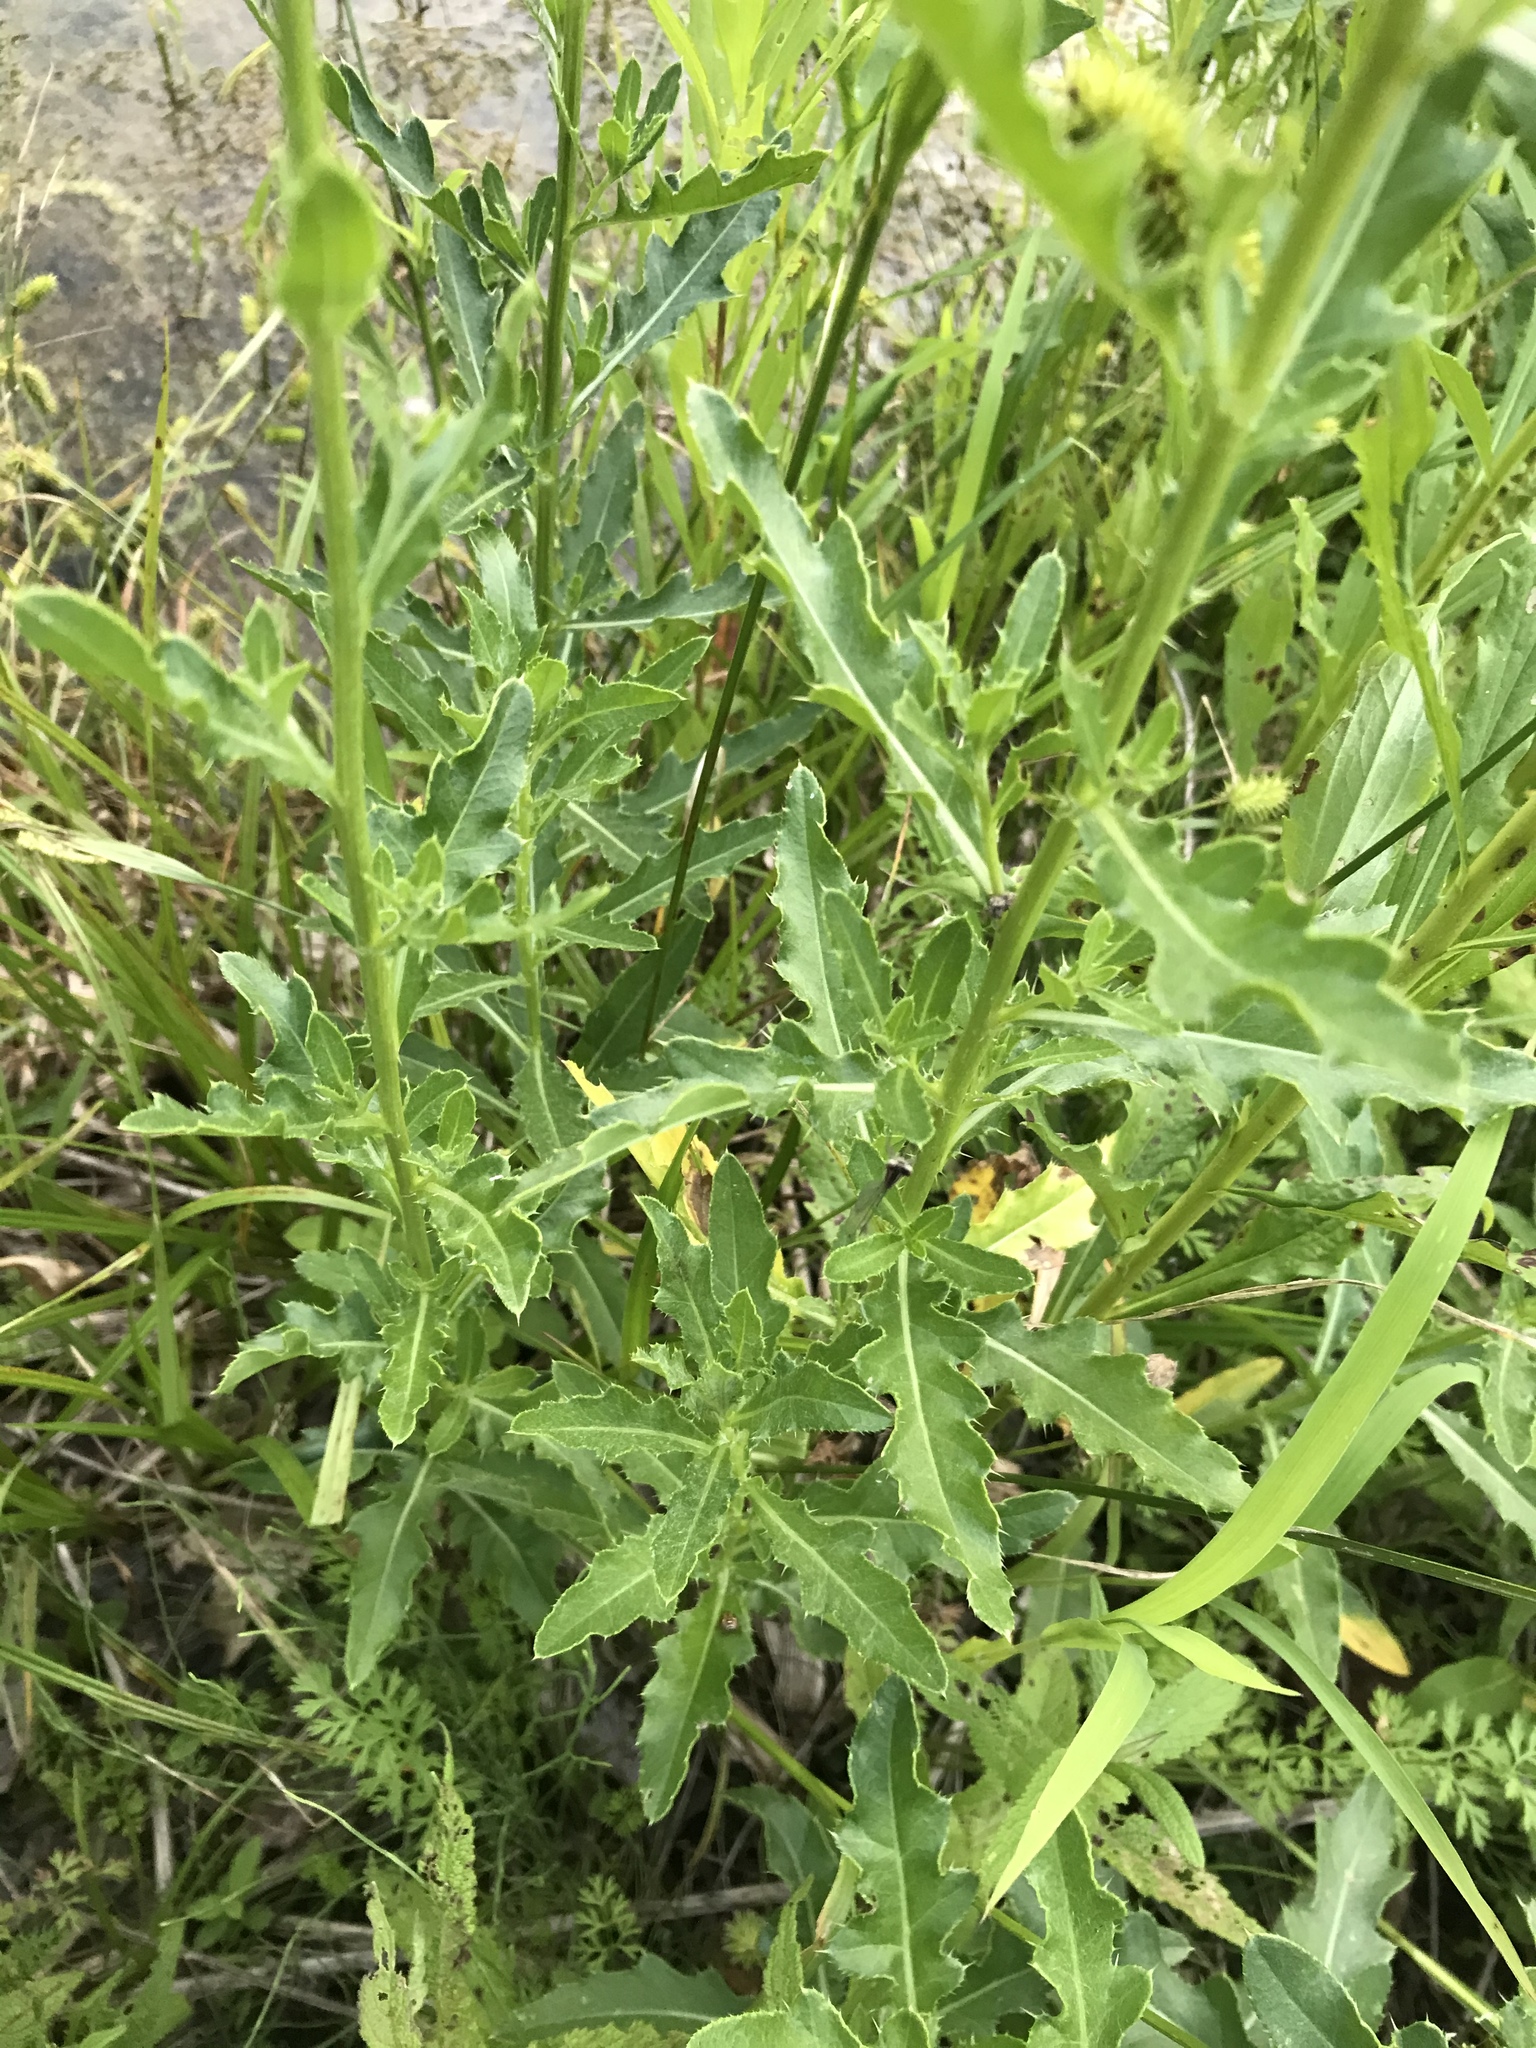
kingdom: Plantae
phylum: Tracheophyta
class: Magnoliopsida
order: Asterales
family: Asteraceae
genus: Cirsium
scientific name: Cirsium arvense
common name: Creeping thistle
